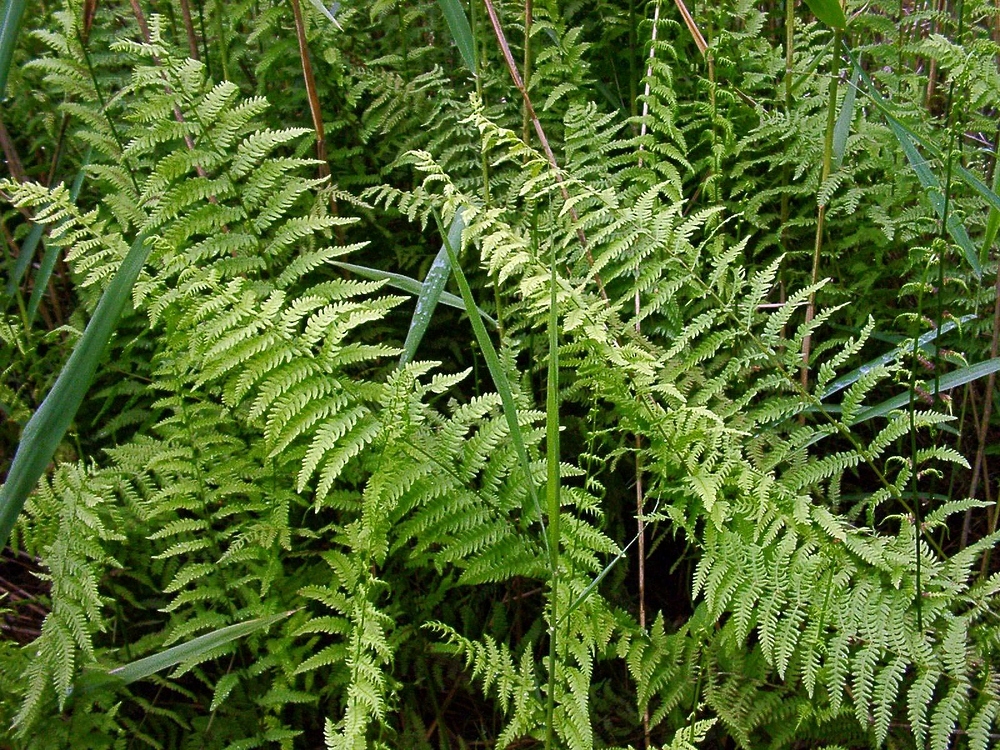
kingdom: Plantae
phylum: Tracheophyta
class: Polypodiopsida
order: Polypodiales
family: Thelypteridaceae
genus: Thelypteris
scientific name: Thelypteris palustris
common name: Marsh fern
